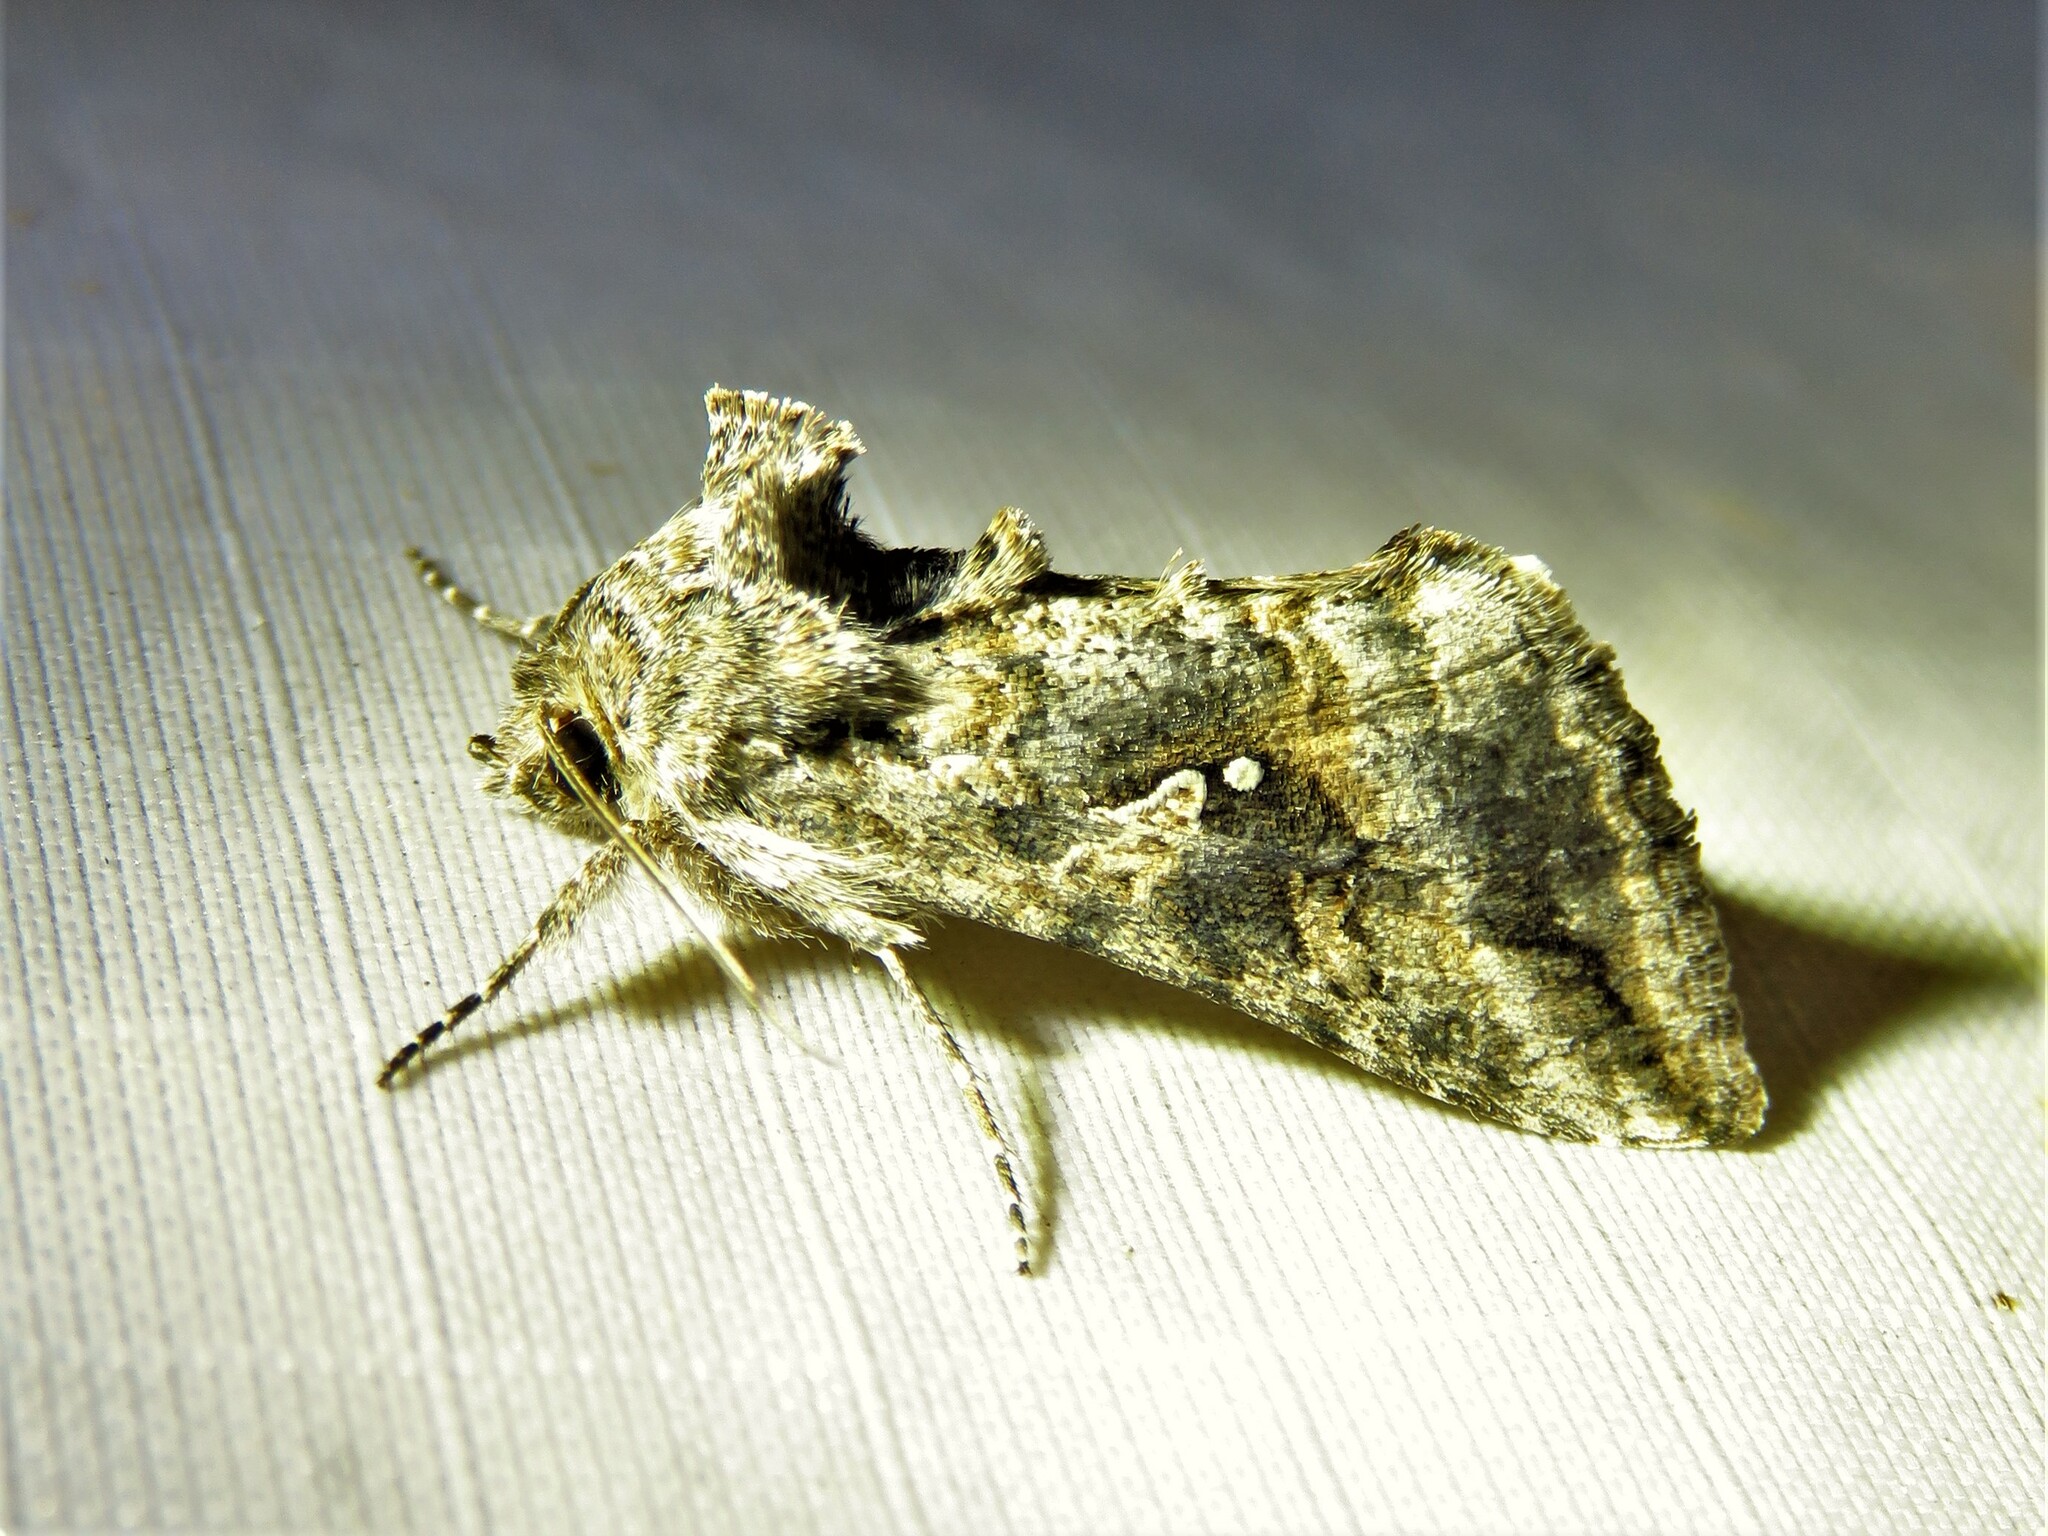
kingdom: Animalia
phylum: Arthropoda
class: Insecta
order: Lepidoptera
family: Noctuidae
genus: Rachiplusia
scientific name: Rachiplusia ou
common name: Gray looper moth
